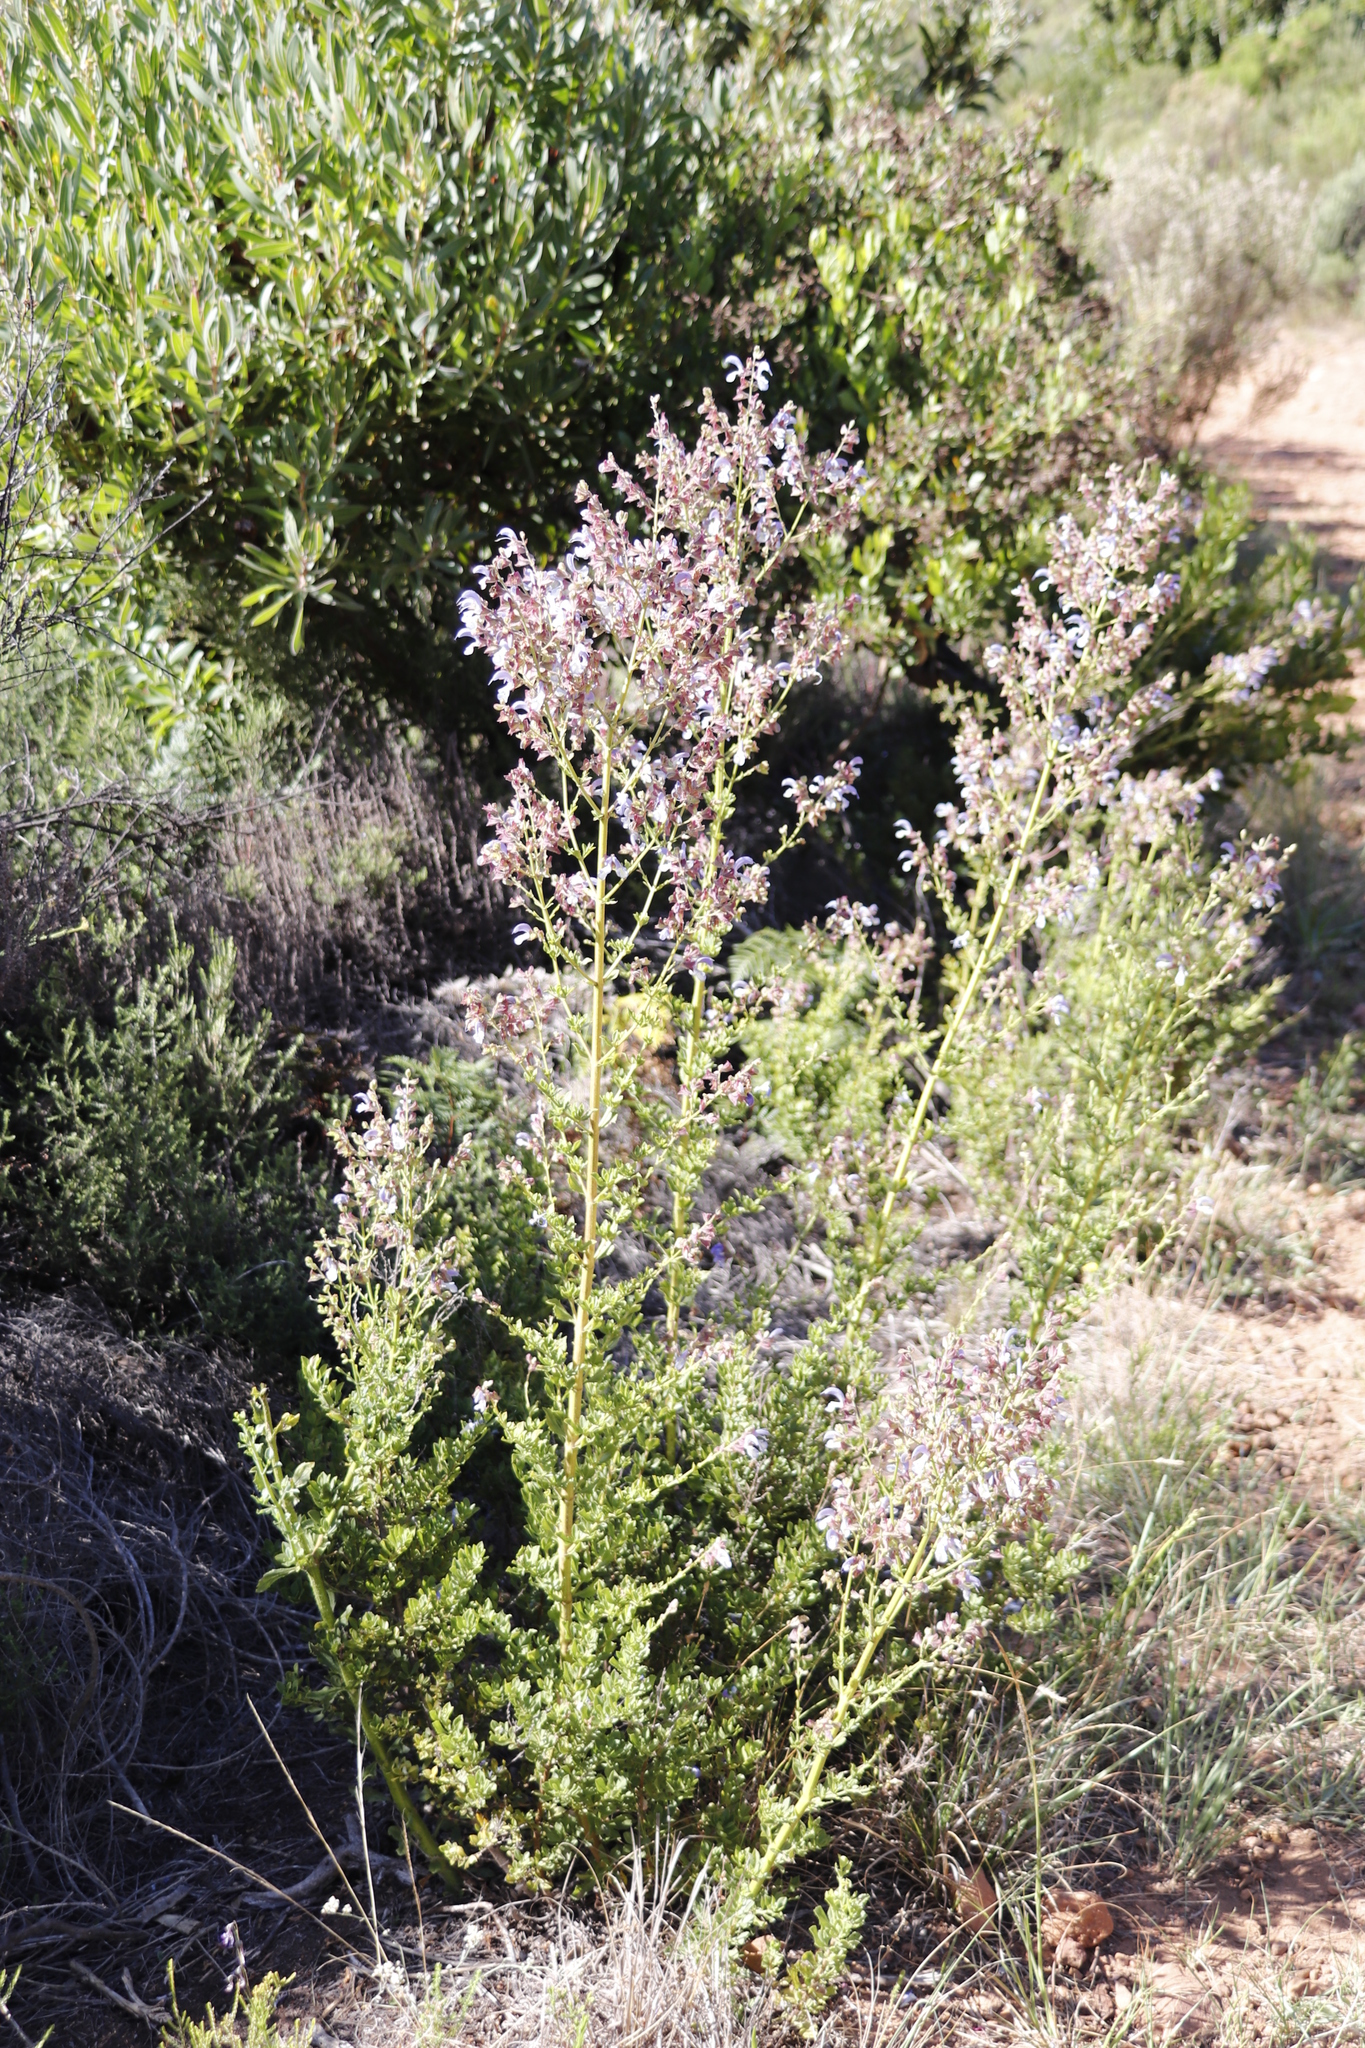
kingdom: Plantae
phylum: Tracheophyta
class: Magnoliopsida
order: Lamiales
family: Lamiaceae
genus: Salvia
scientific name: Salvia chamelaeagnea
